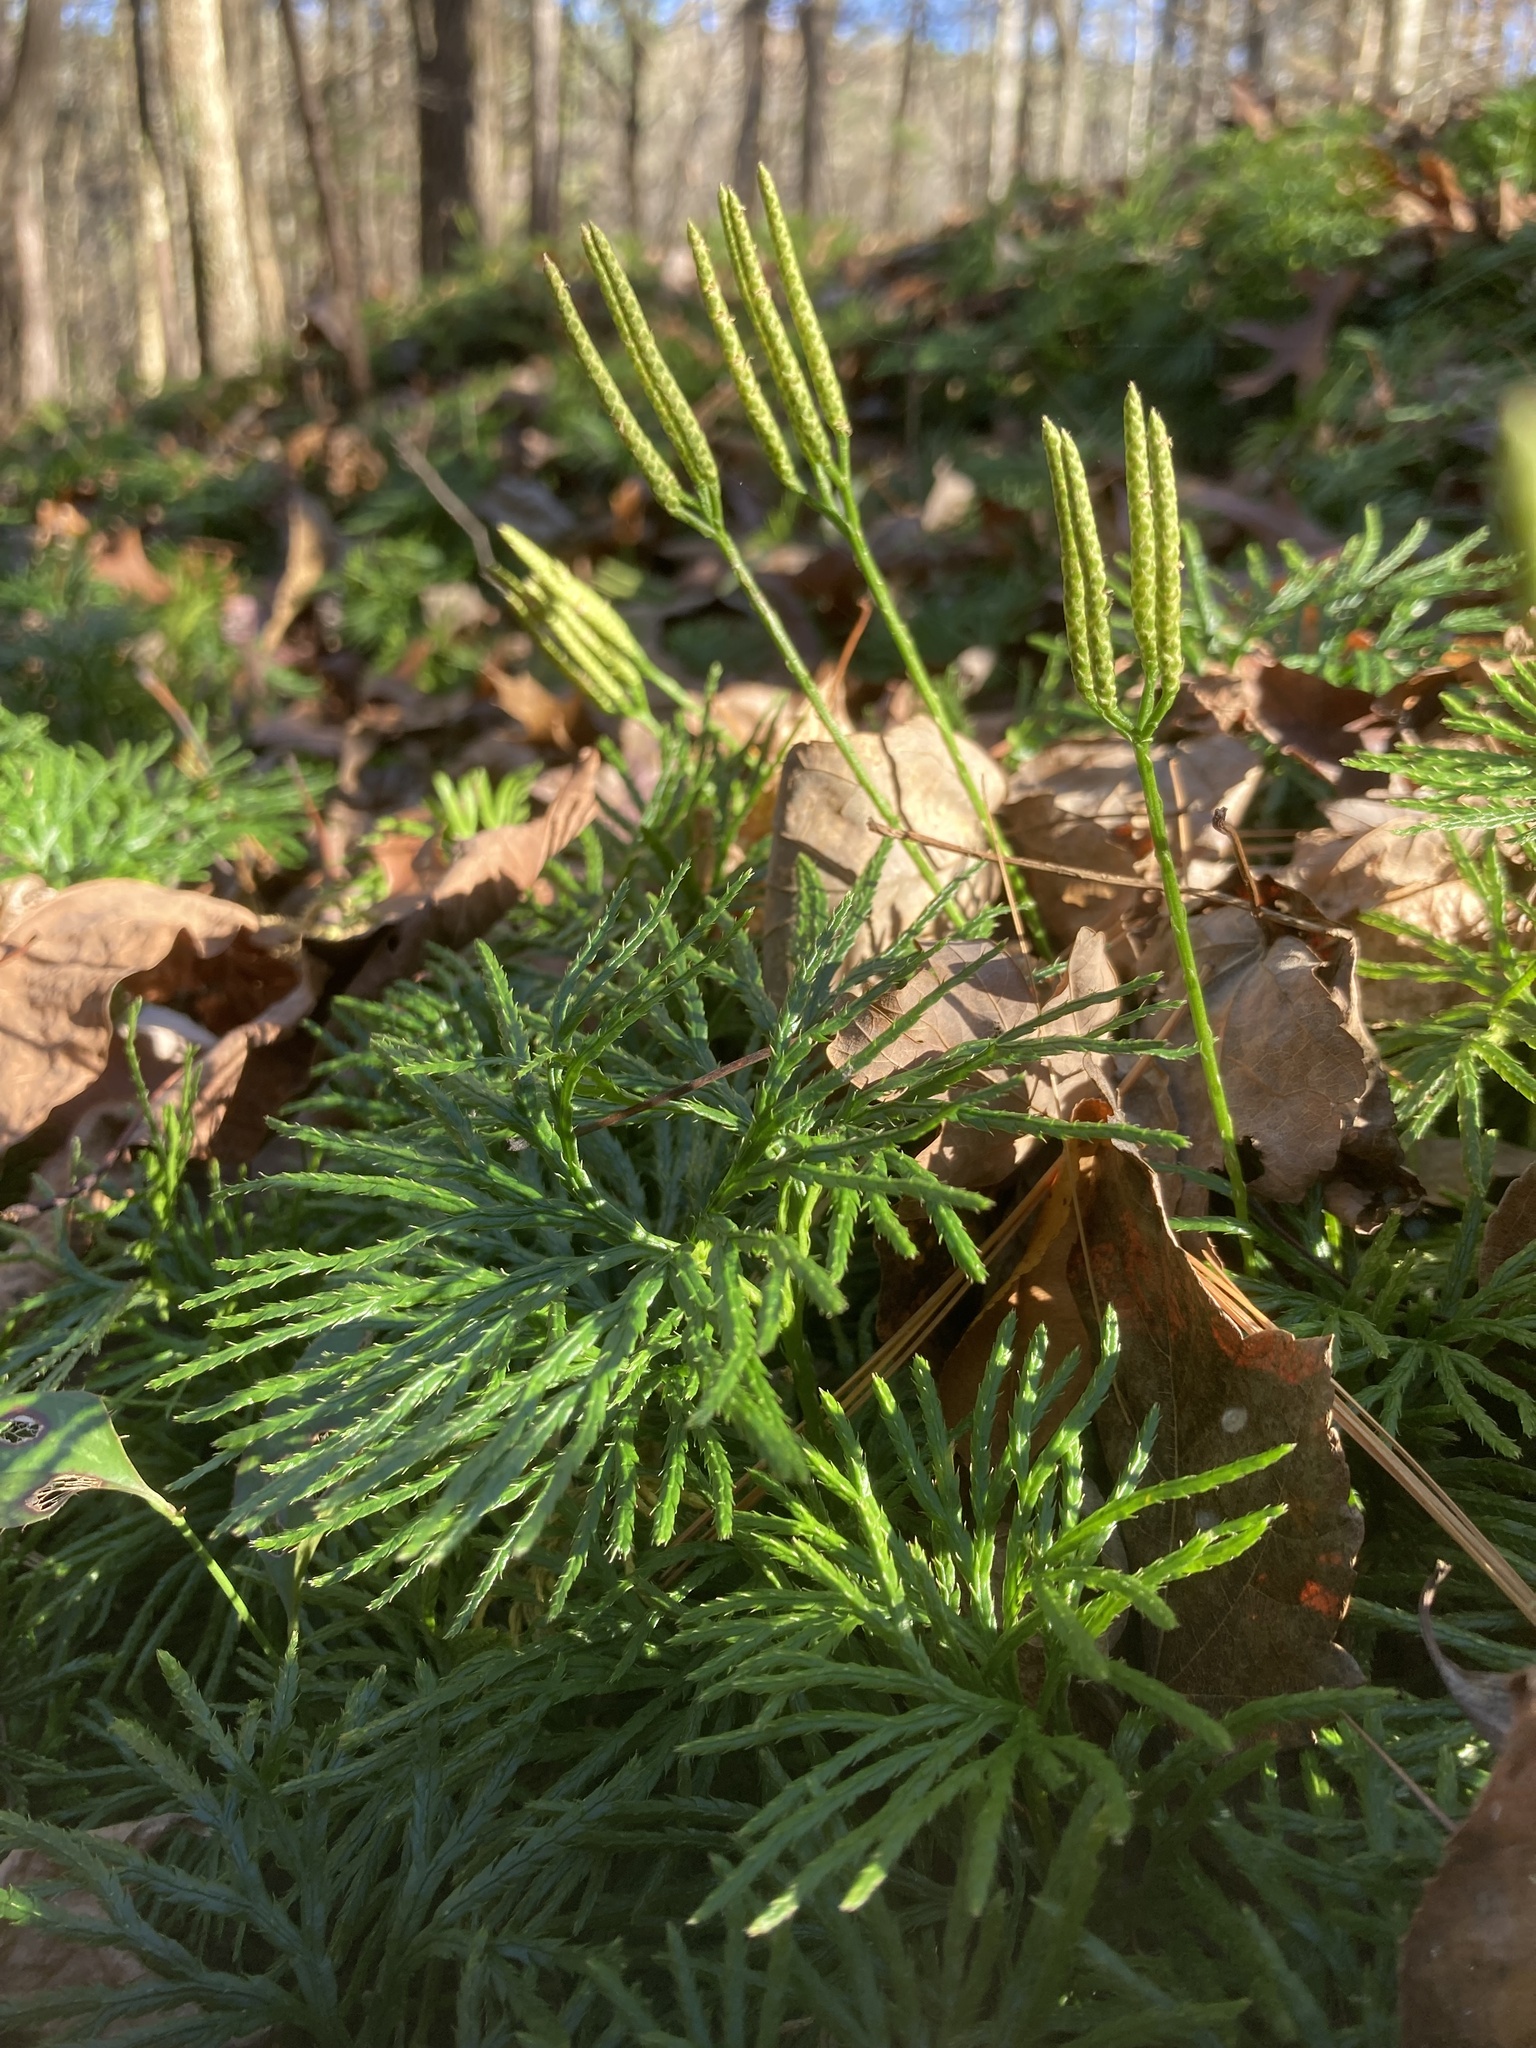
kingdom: Plantae
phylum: Tracheophyta
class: Lycopodiopsida
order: Lycopodiales
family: Lycopodiaceae
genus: Diphasiastrum
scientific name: Diphasiastrum digitatum
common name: Southern running-pine
